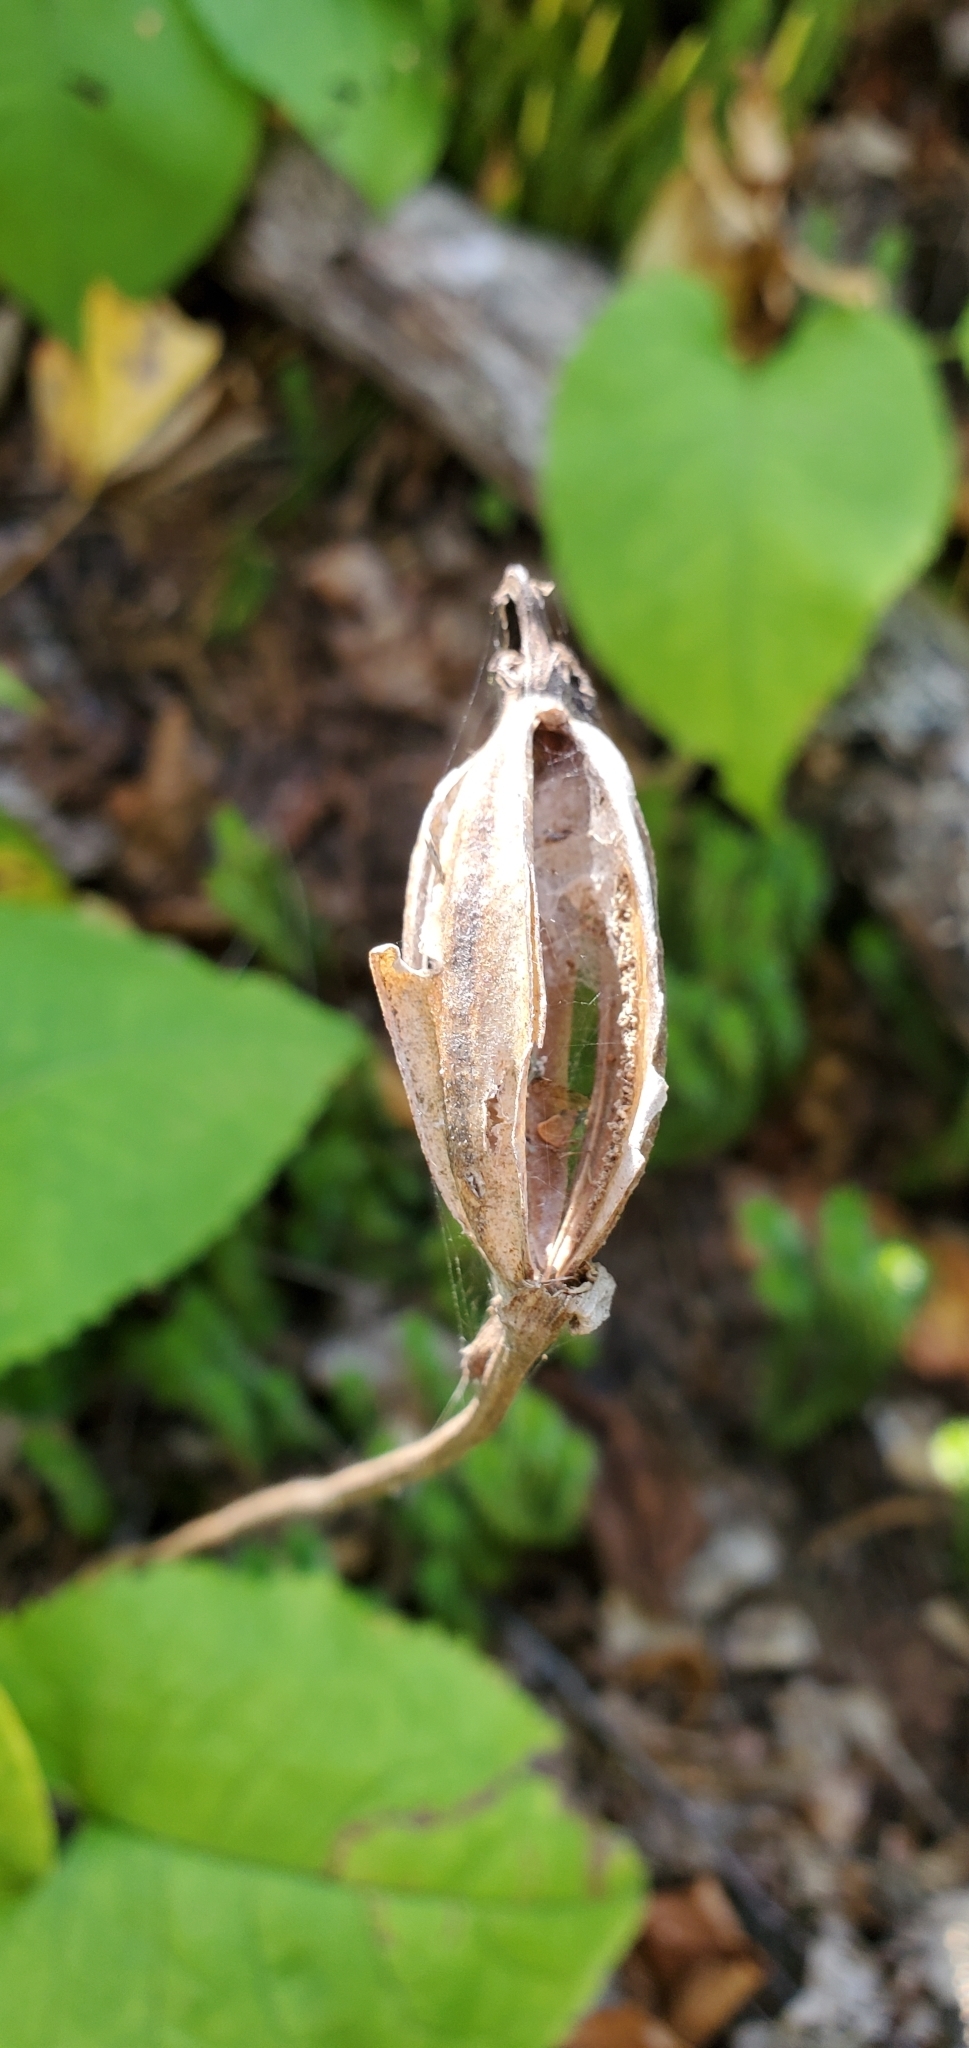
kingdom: Plantae
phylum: Tracheophyta
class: Liliopsida
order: Asparagales
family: Orchidaceae
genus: Cypripedium
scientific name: Cypripedium acaule
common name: Pink lady's-slipper
